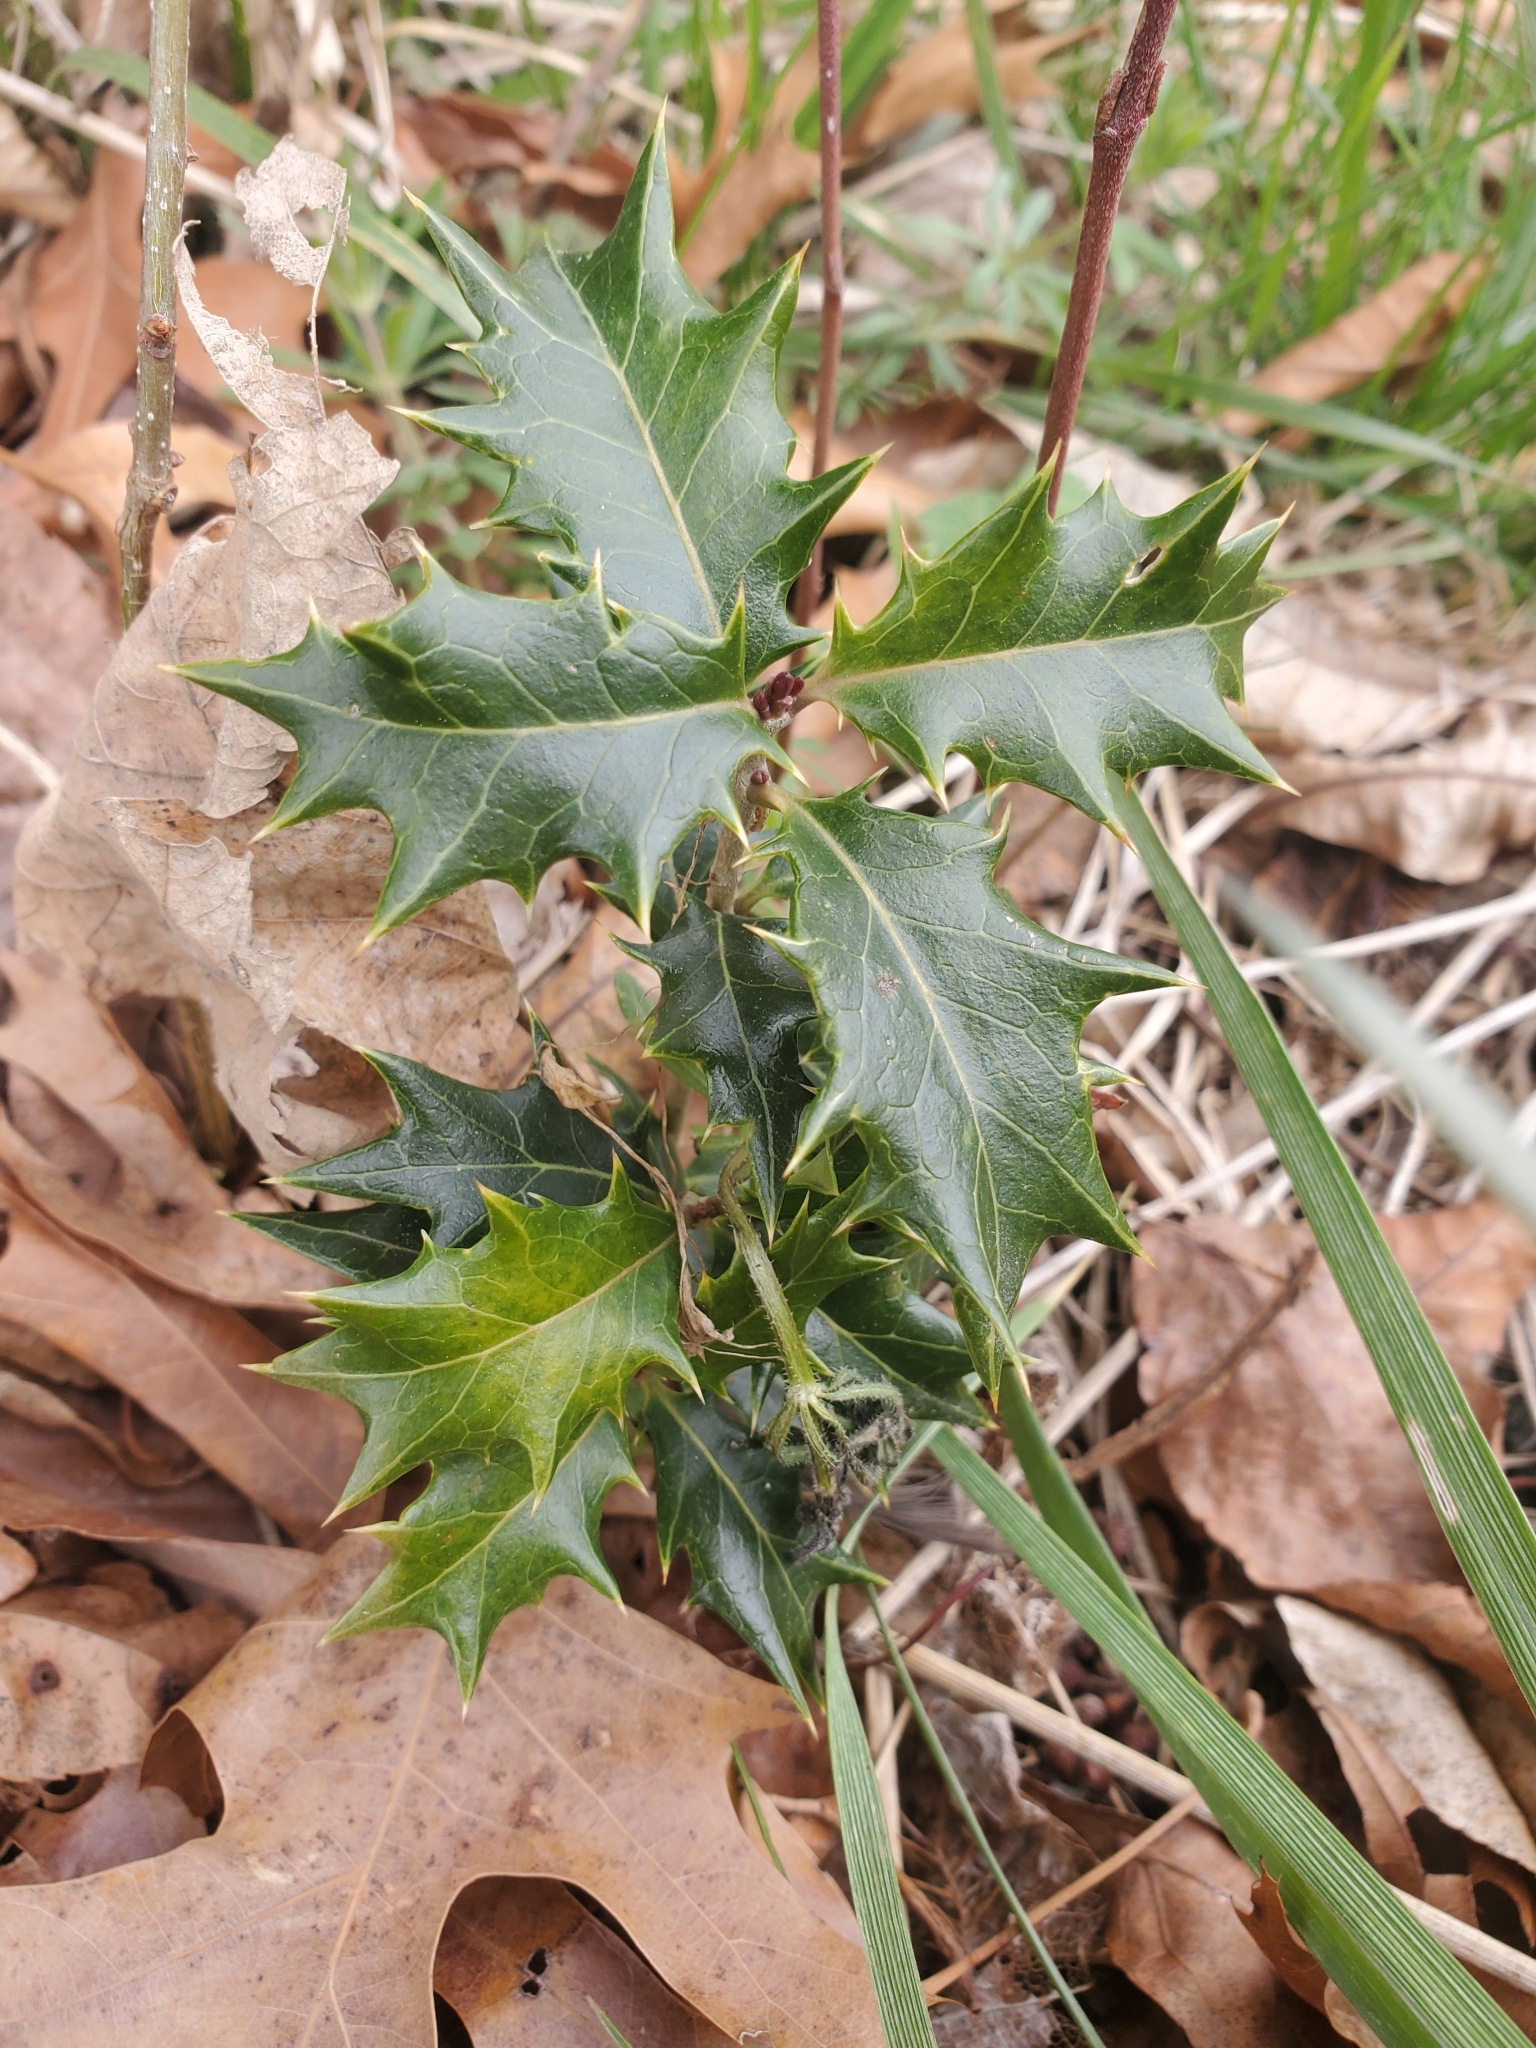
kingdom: Plantae
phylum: Tracheophyta
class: Magnoliopsida
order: Lamiales
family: Oleaceae
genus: Osmanthus
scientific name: Osmanthus heterophyllus
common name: Holly osmanthus
